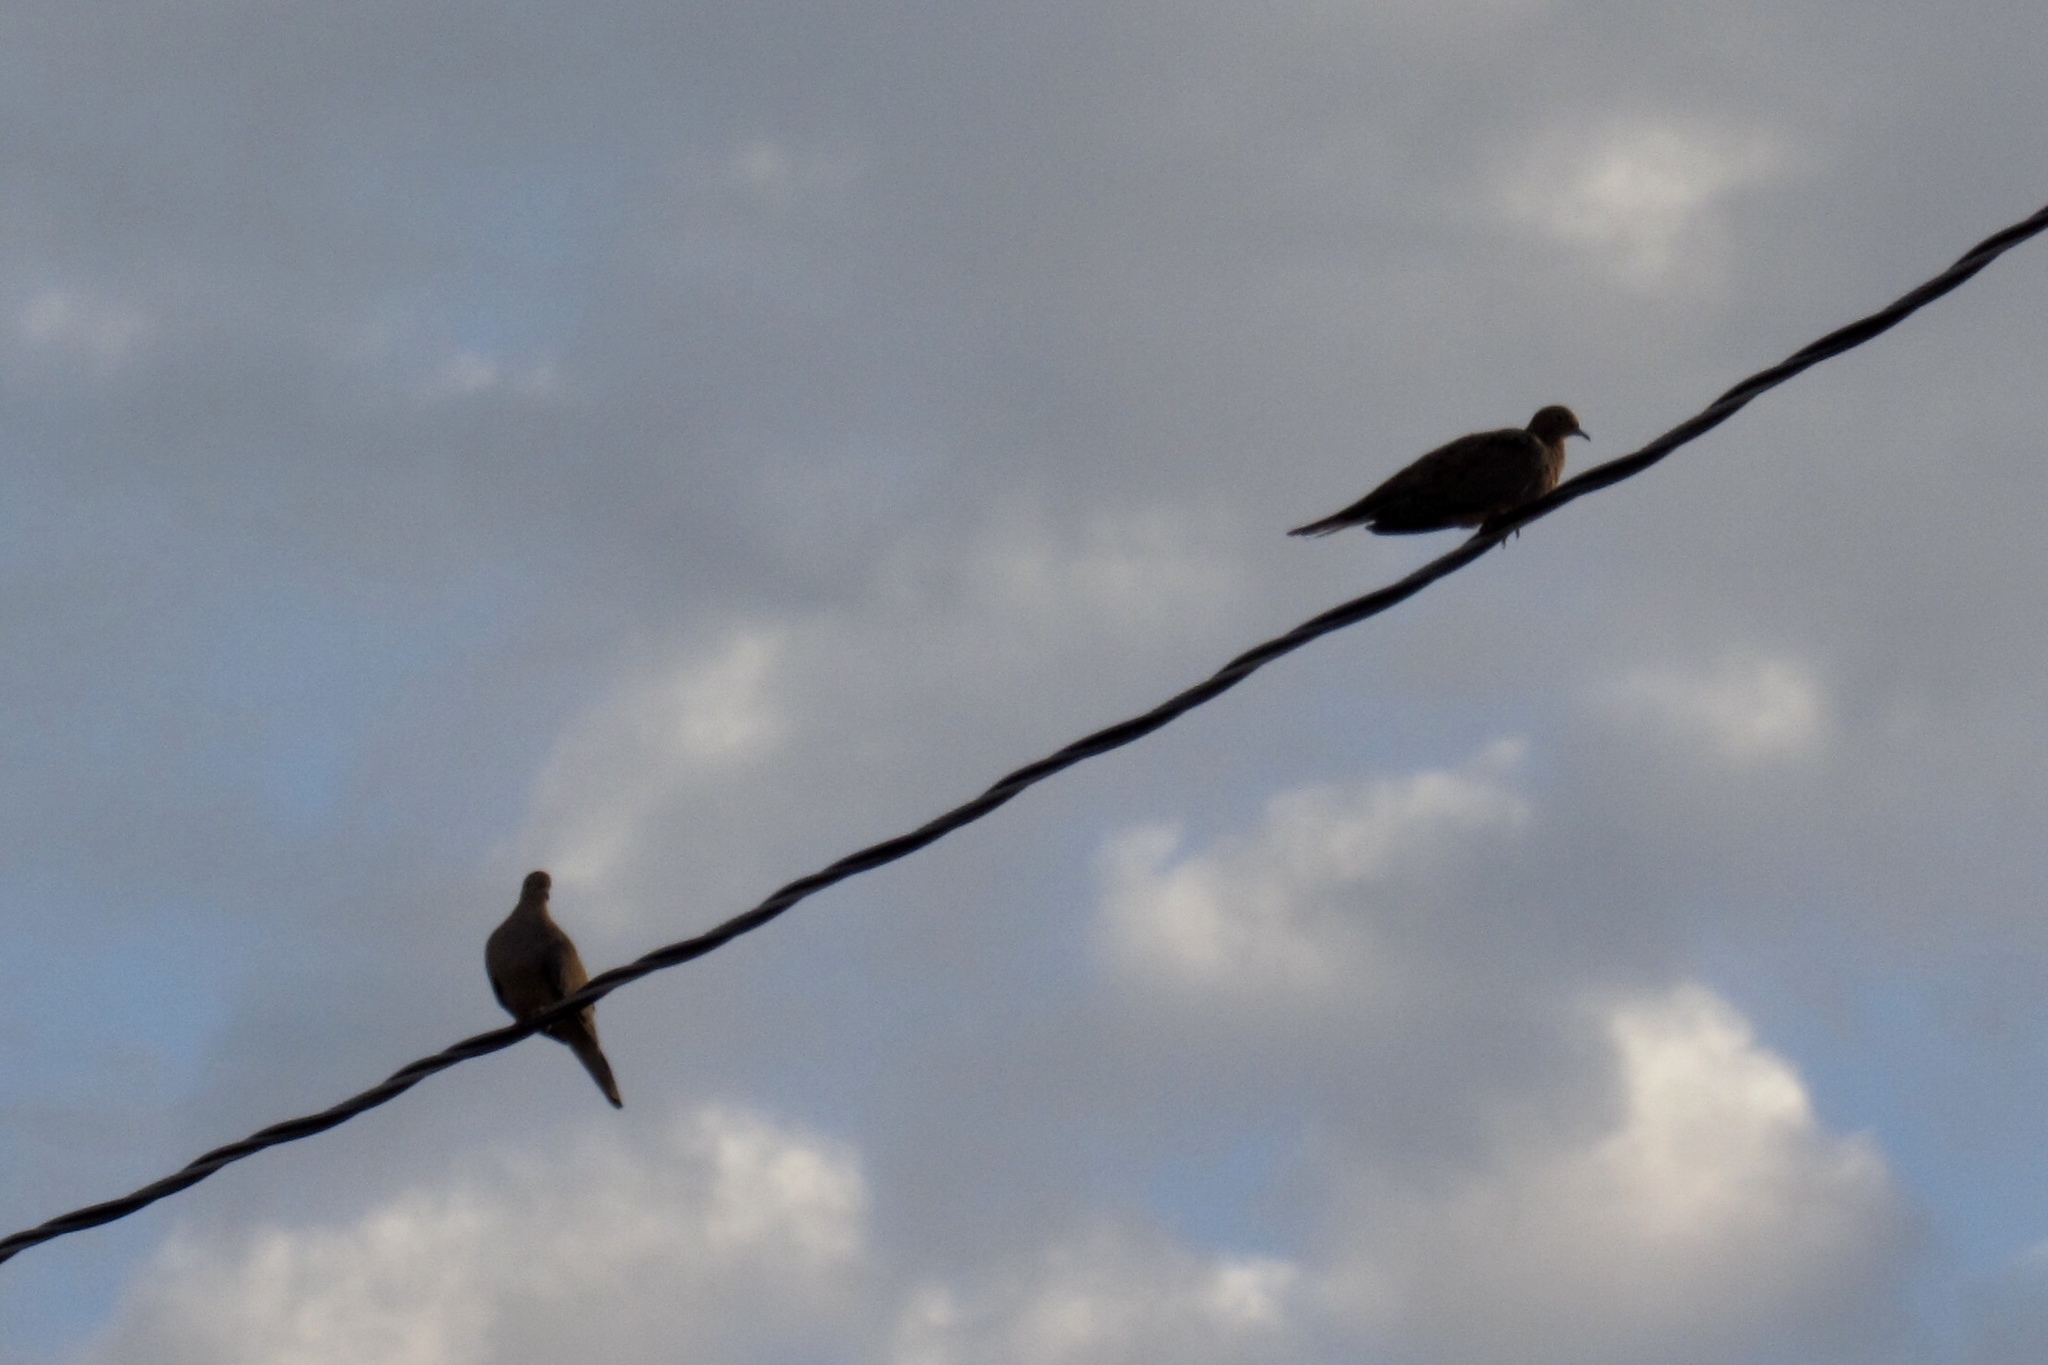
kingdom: Animalia
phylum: Chordata
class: Aves
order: Columbiformes
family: Columbidae
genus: Zenaida
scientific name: Zenaida macroura
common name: Mourning dove
